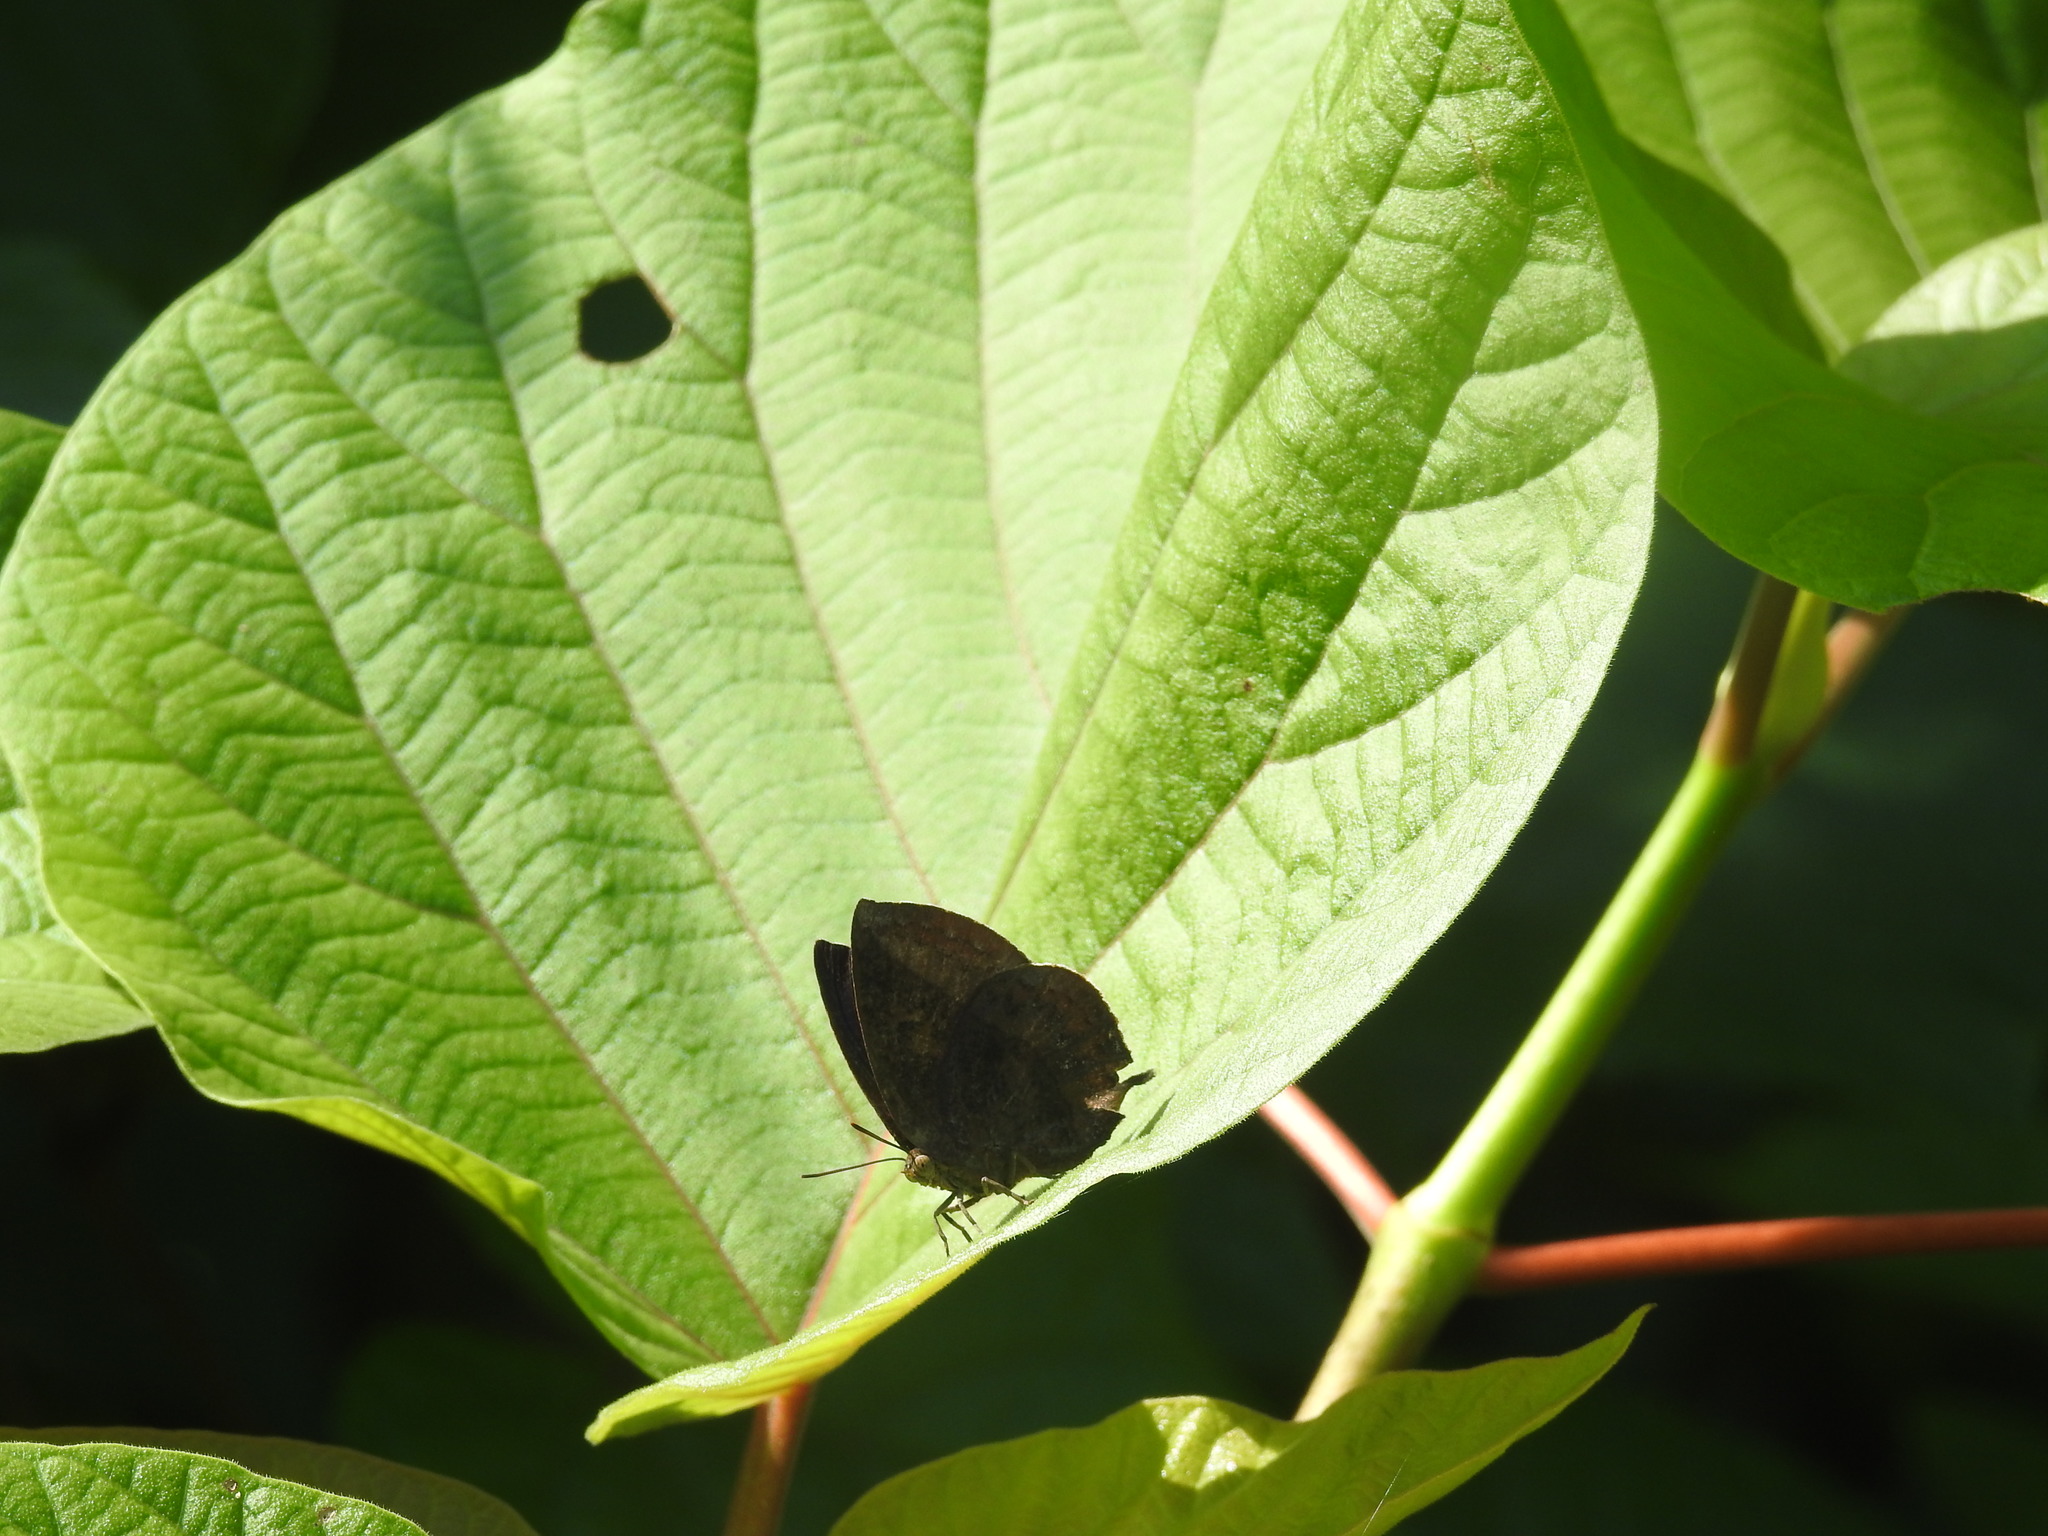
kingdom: Animalia
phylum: Arthropoda
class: Insecta
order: Lepidoptera
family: Lycaenidae
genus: Amblypodia
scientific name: Amblypodia anita
